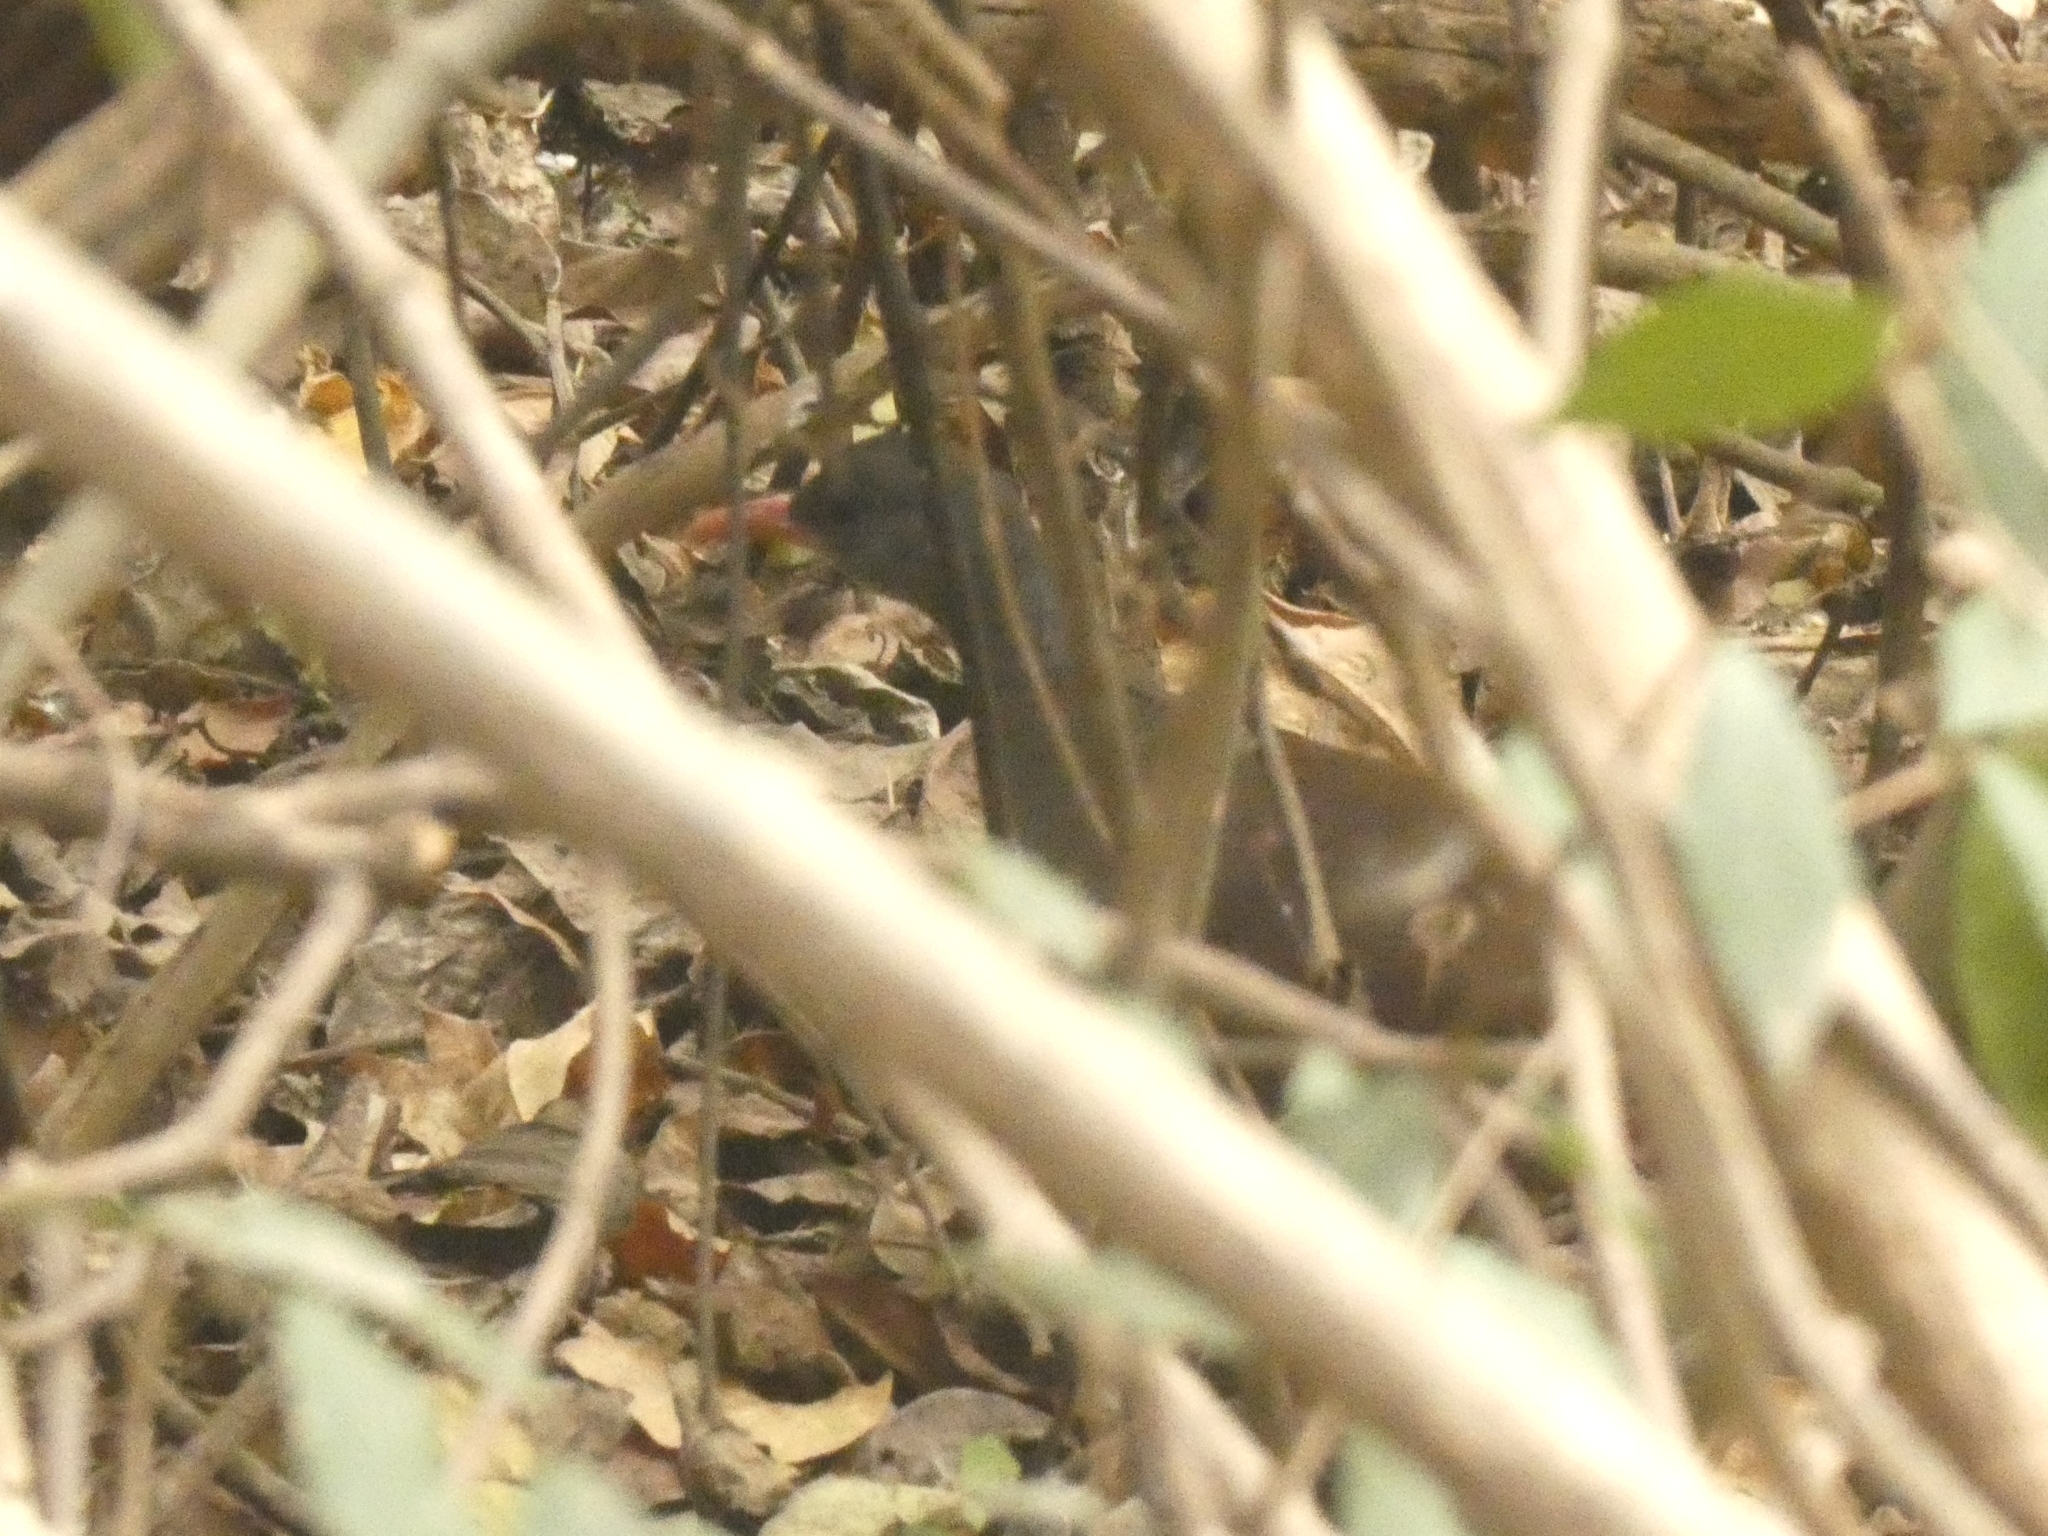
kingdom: Animalia
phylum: Chordata
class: Aves
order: Tinamiformes
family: Tinamidae
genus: Crypturellus
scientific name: Crypturellus tataupa
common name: Tataupa tinamou
